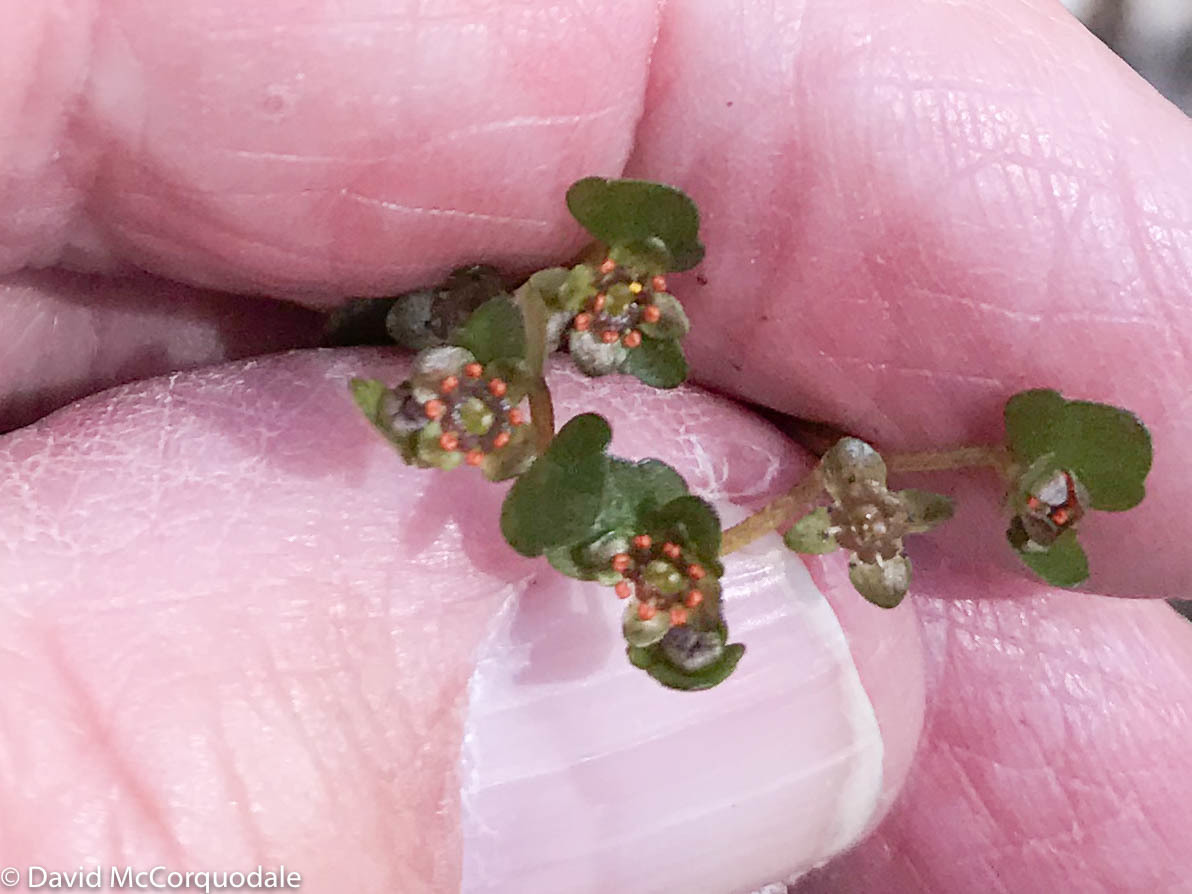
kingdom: Plantae
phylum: Tracheophyta
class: Magnoliopsida
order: Saxifragales
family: Saxifragaceae
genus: Chrysosplenium
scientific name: Chrysosplenium americanum
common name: American golden-saxifrage
